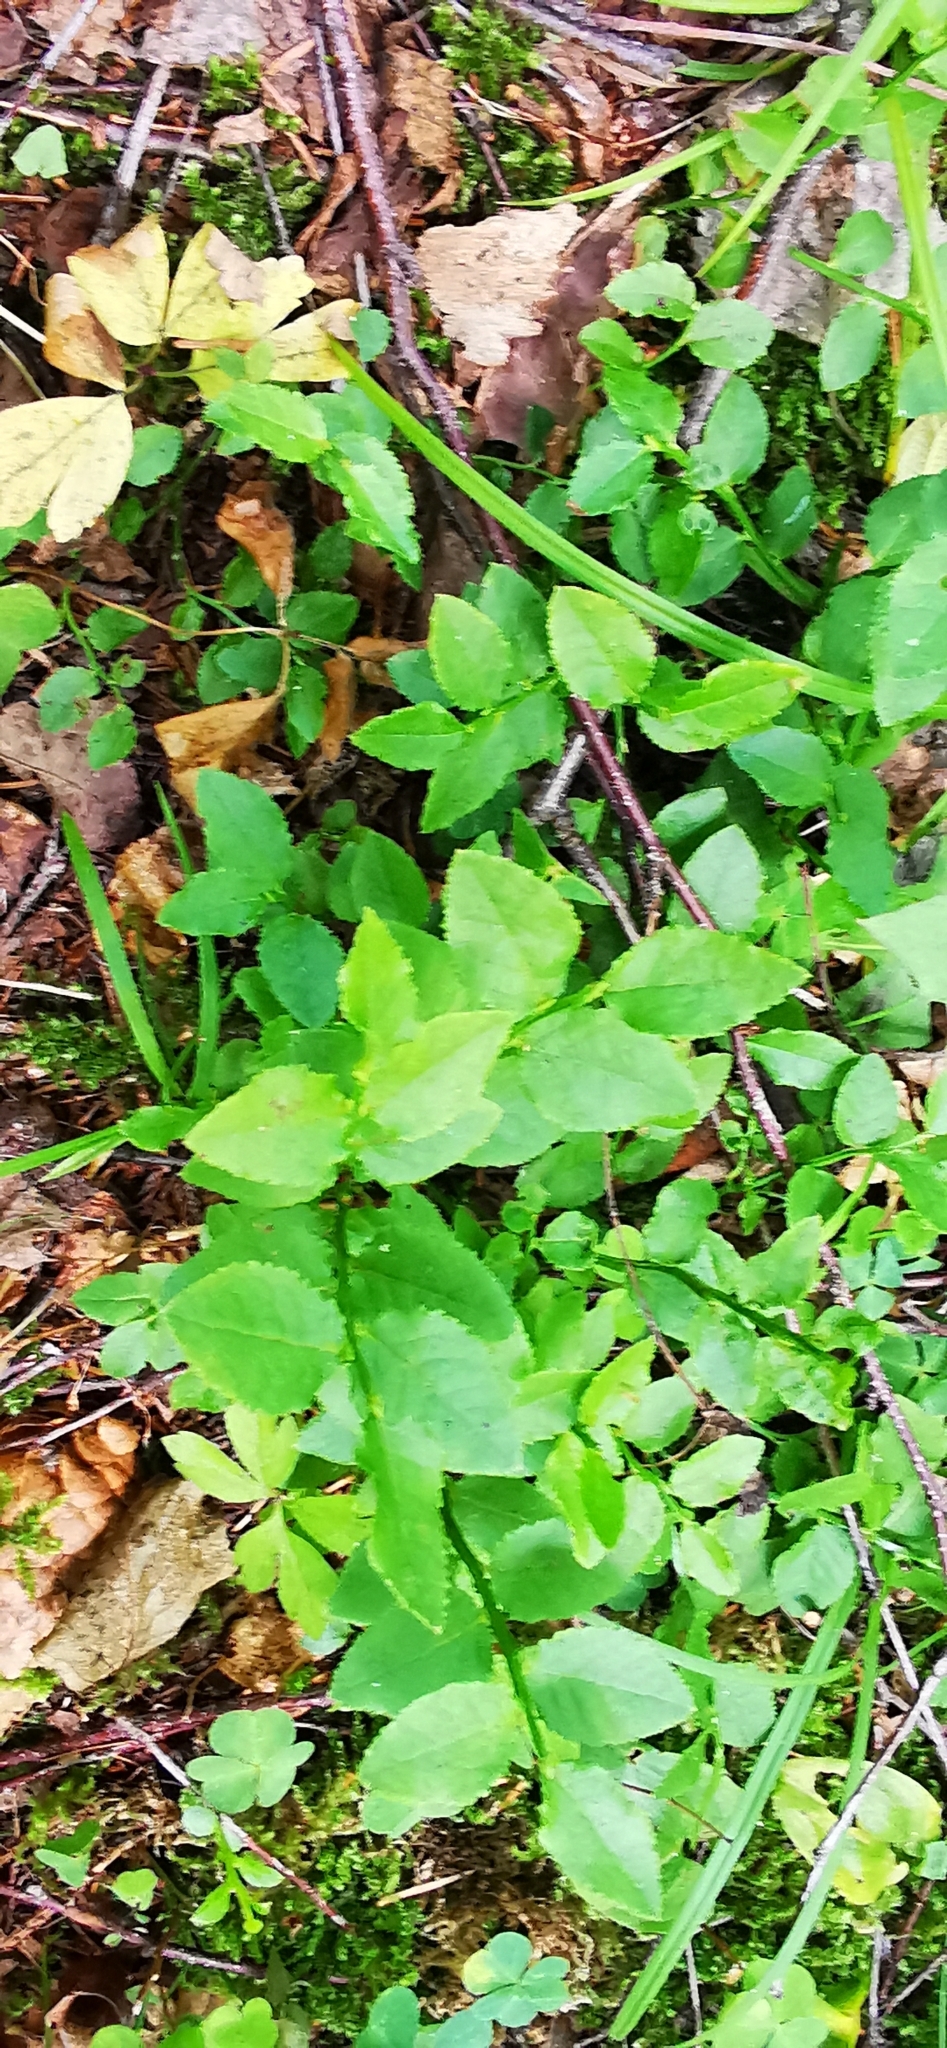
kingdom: Plantae
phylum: Tracheophyta
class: Magnoliopsida
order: Ericales
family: Ericaceae
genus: Vaccinium
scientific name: Vaccinium myrtillus
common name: Bilberry
